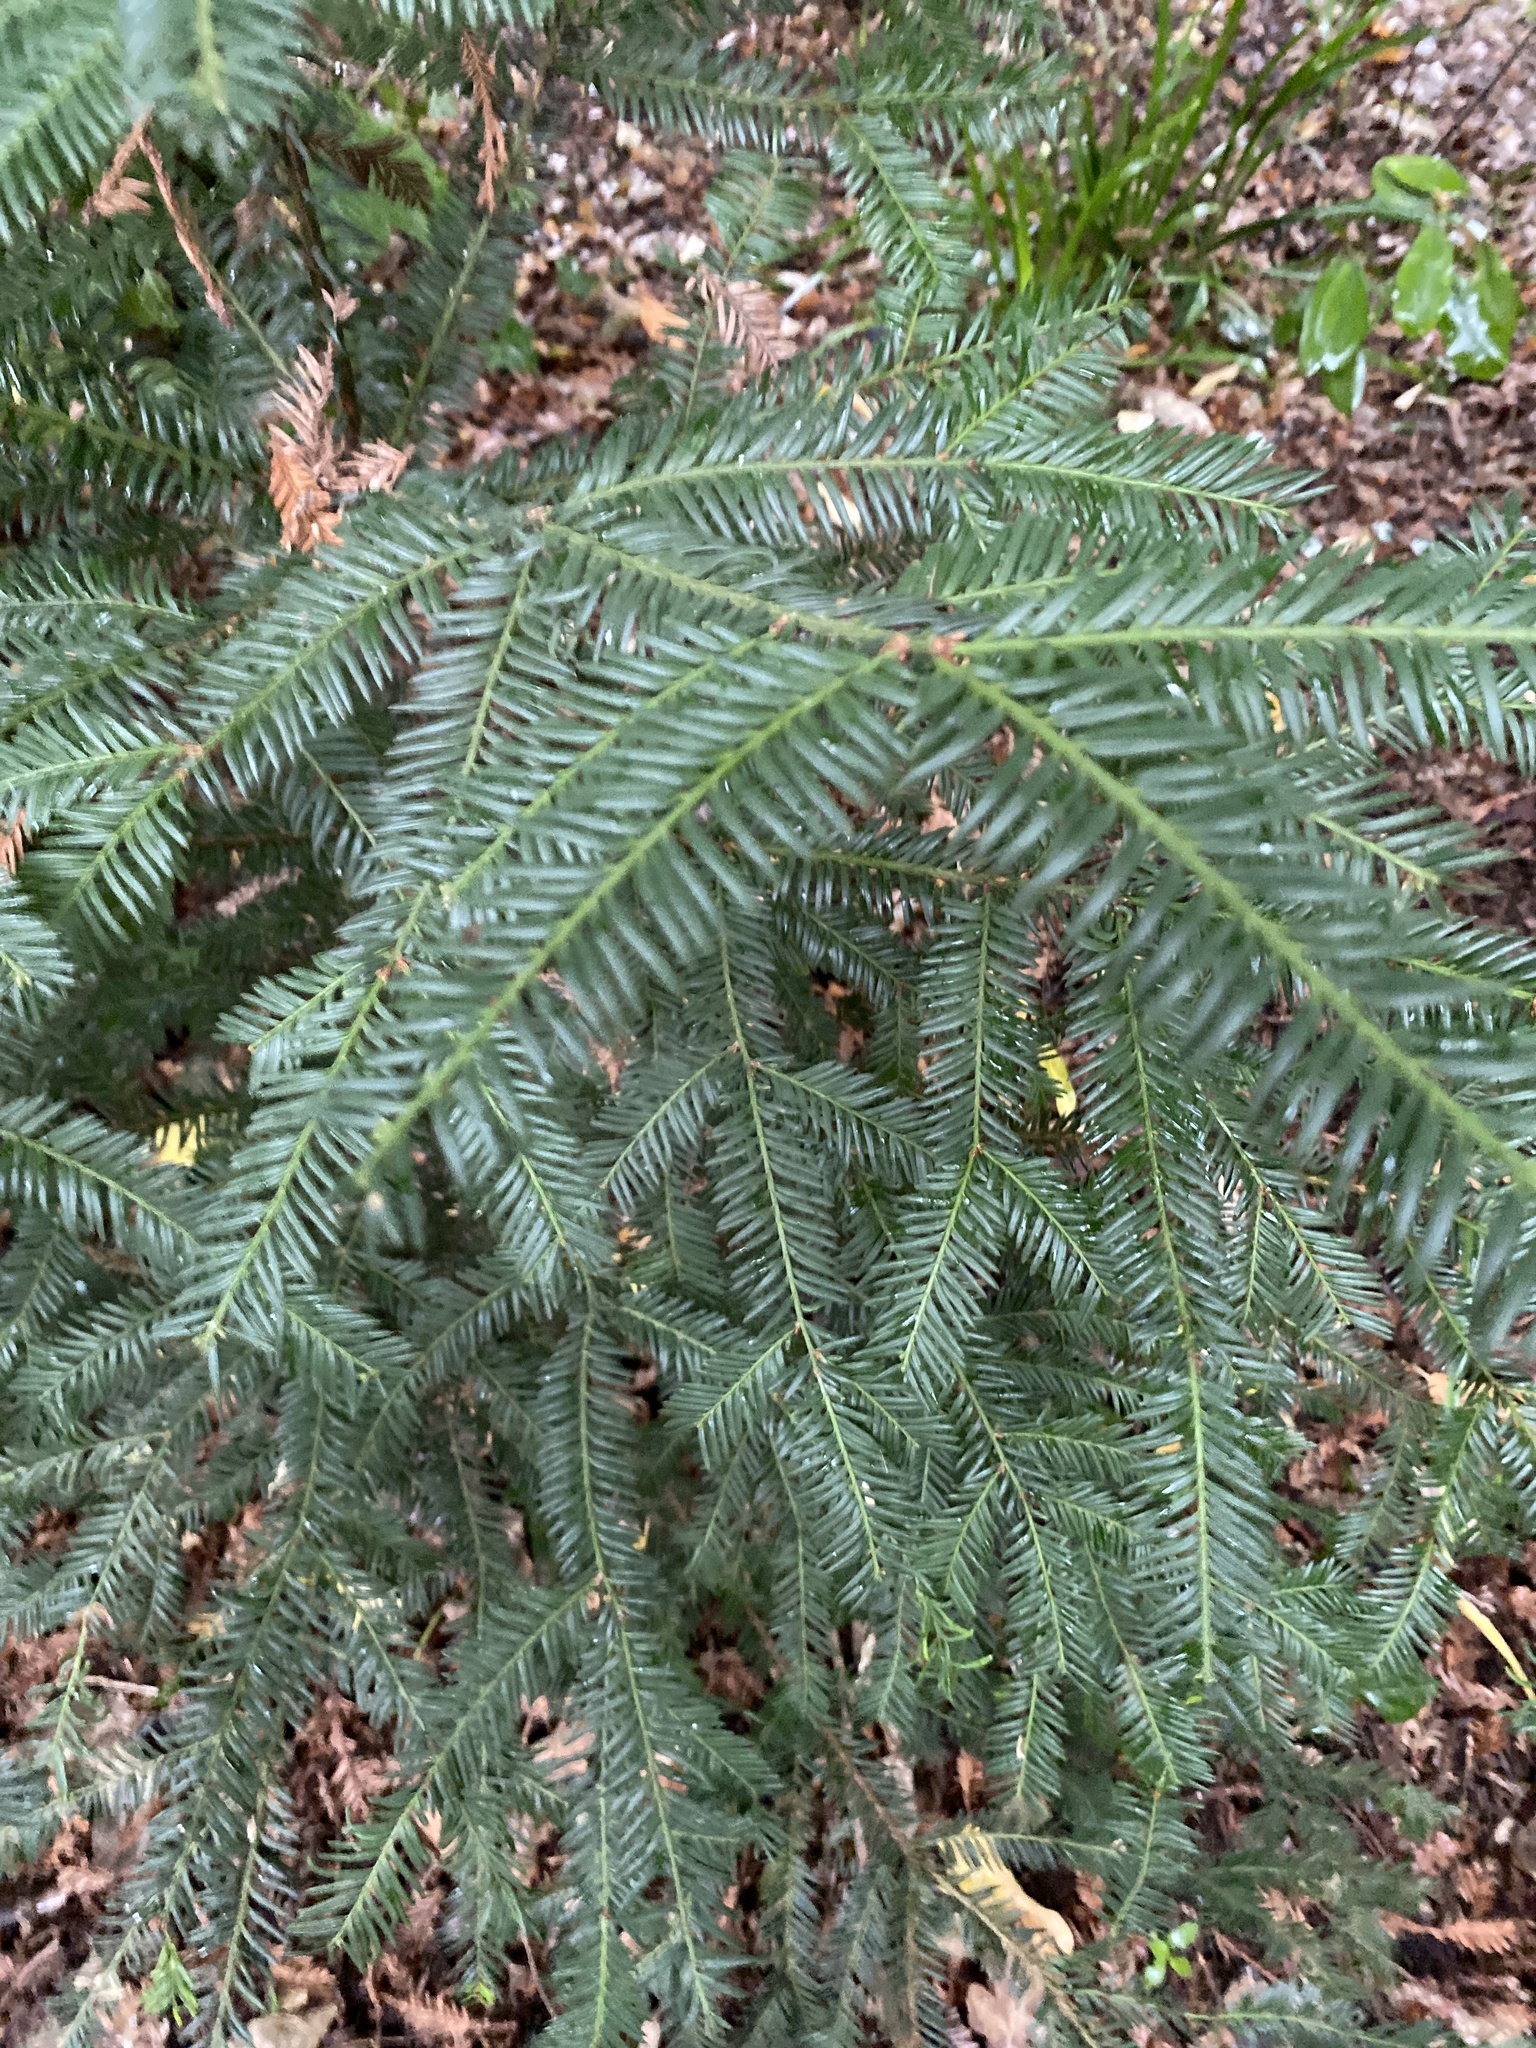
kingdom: Plantae
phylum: Tracheophyta
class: Pinopsida
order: Pinales
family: Taxaceae
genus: Taxus
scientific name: Taxus baccata
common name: Yew
